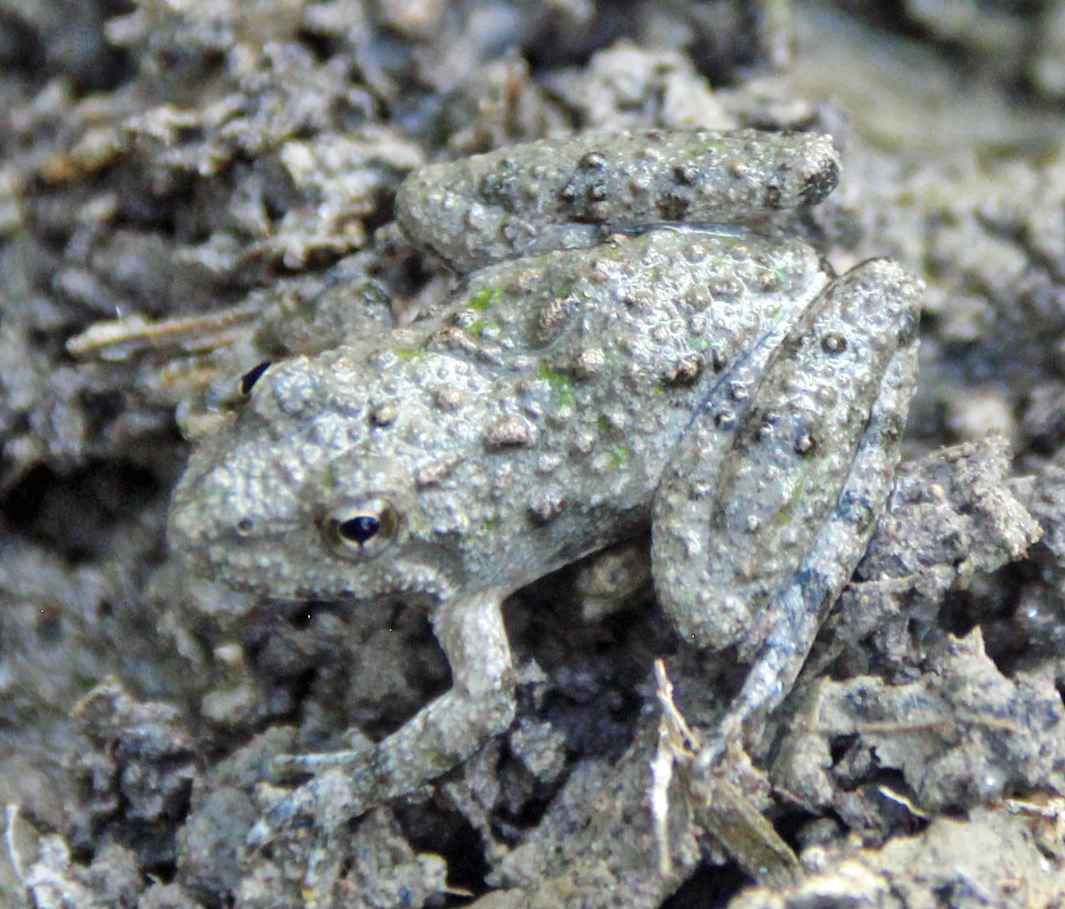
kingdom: Animalia
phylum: Chordata
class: Amphibia
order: Anura
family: Hylidae
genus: Acris
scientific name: Acris blanchardi
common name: Blanchard's cricket frog
